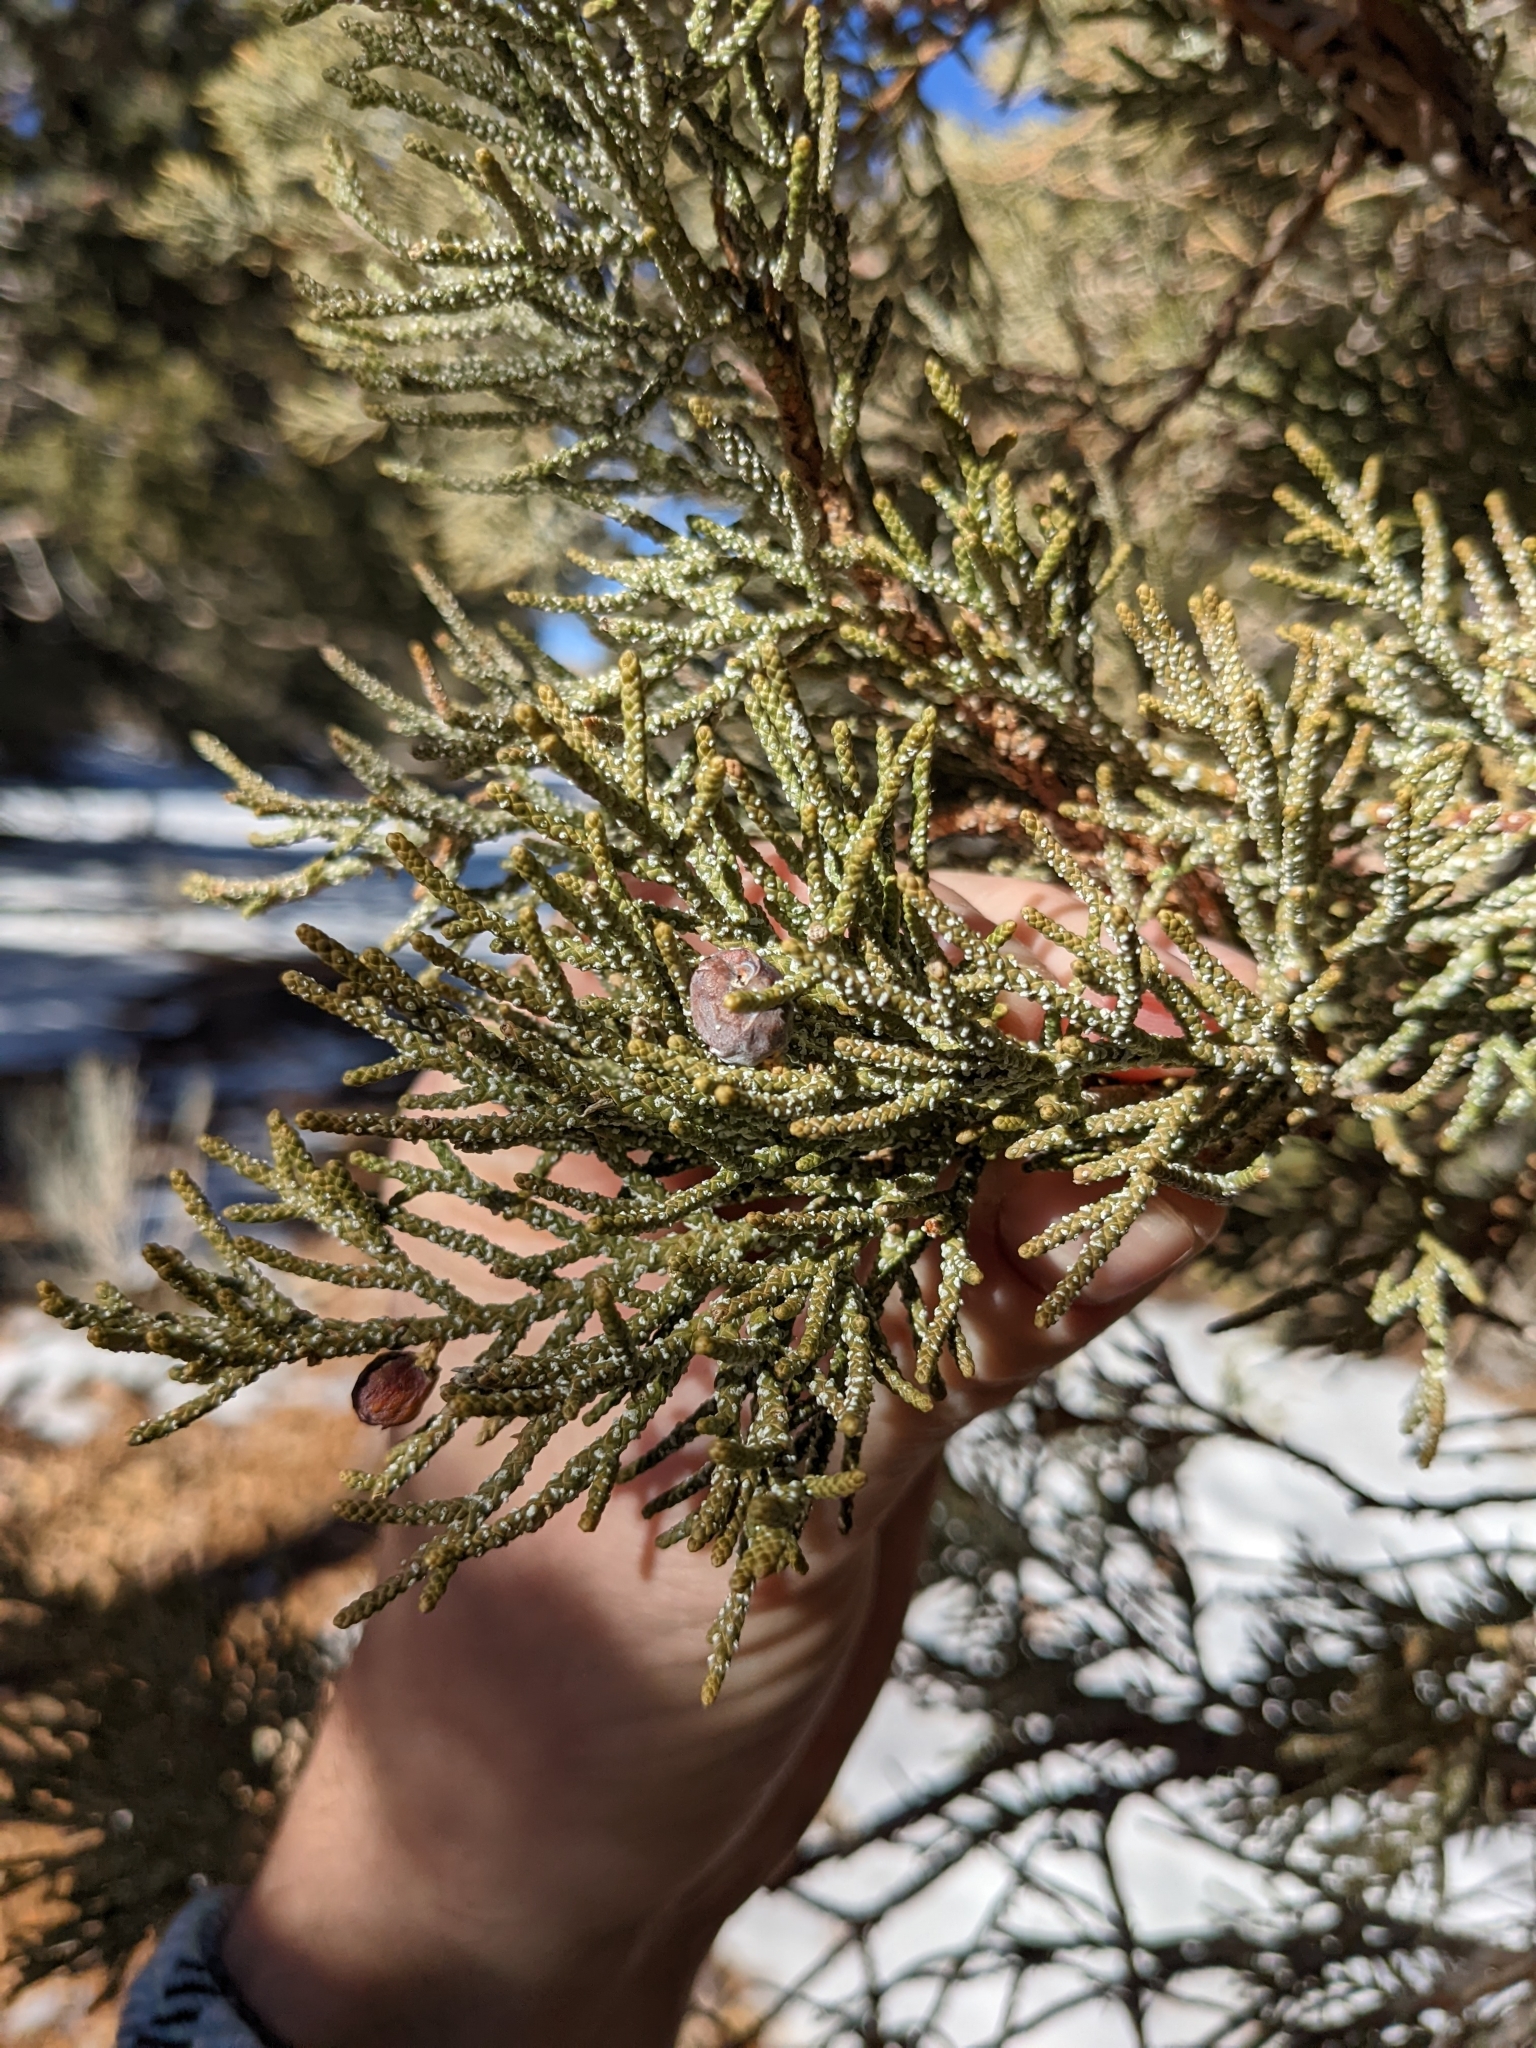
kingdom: Plantae
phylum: Tracheophyta
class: Pinopsida
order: Pinales
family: Cupressaceae
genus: Juniperus
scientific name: Juniperus occidentalis
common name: Western juniper
